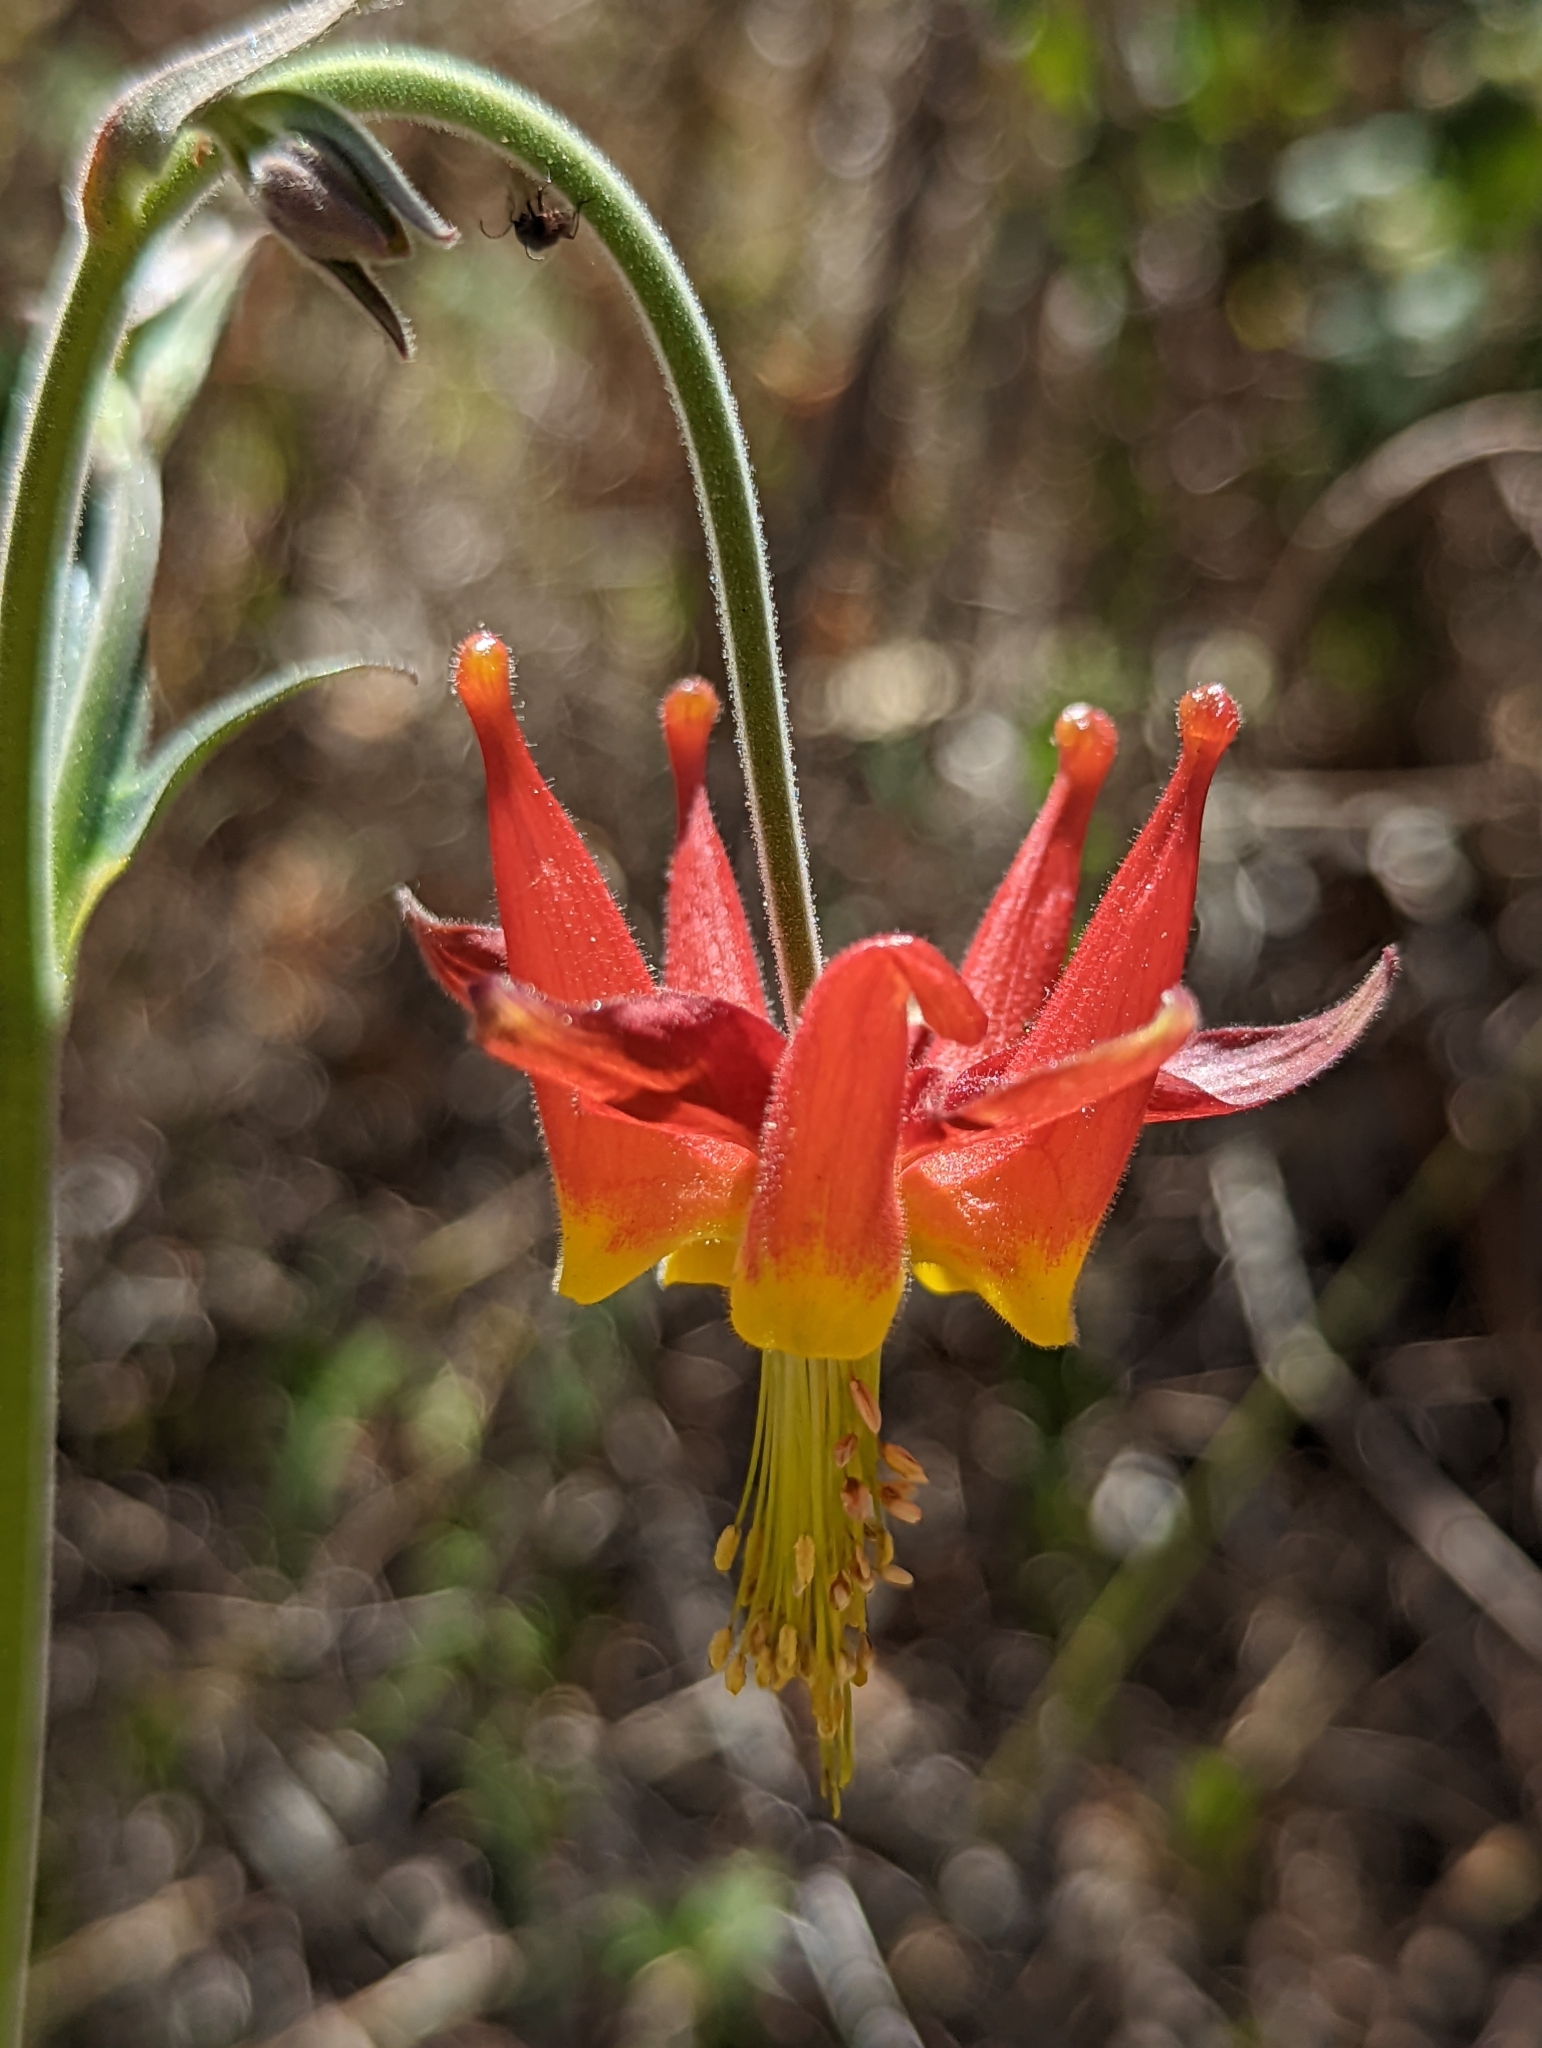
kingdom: Plantae
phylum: Tracheophyta
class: Magnoliopsida
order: Ranunculales
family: Ranunculaceae
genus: Aquilegia
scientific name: Aquilegia eximia
